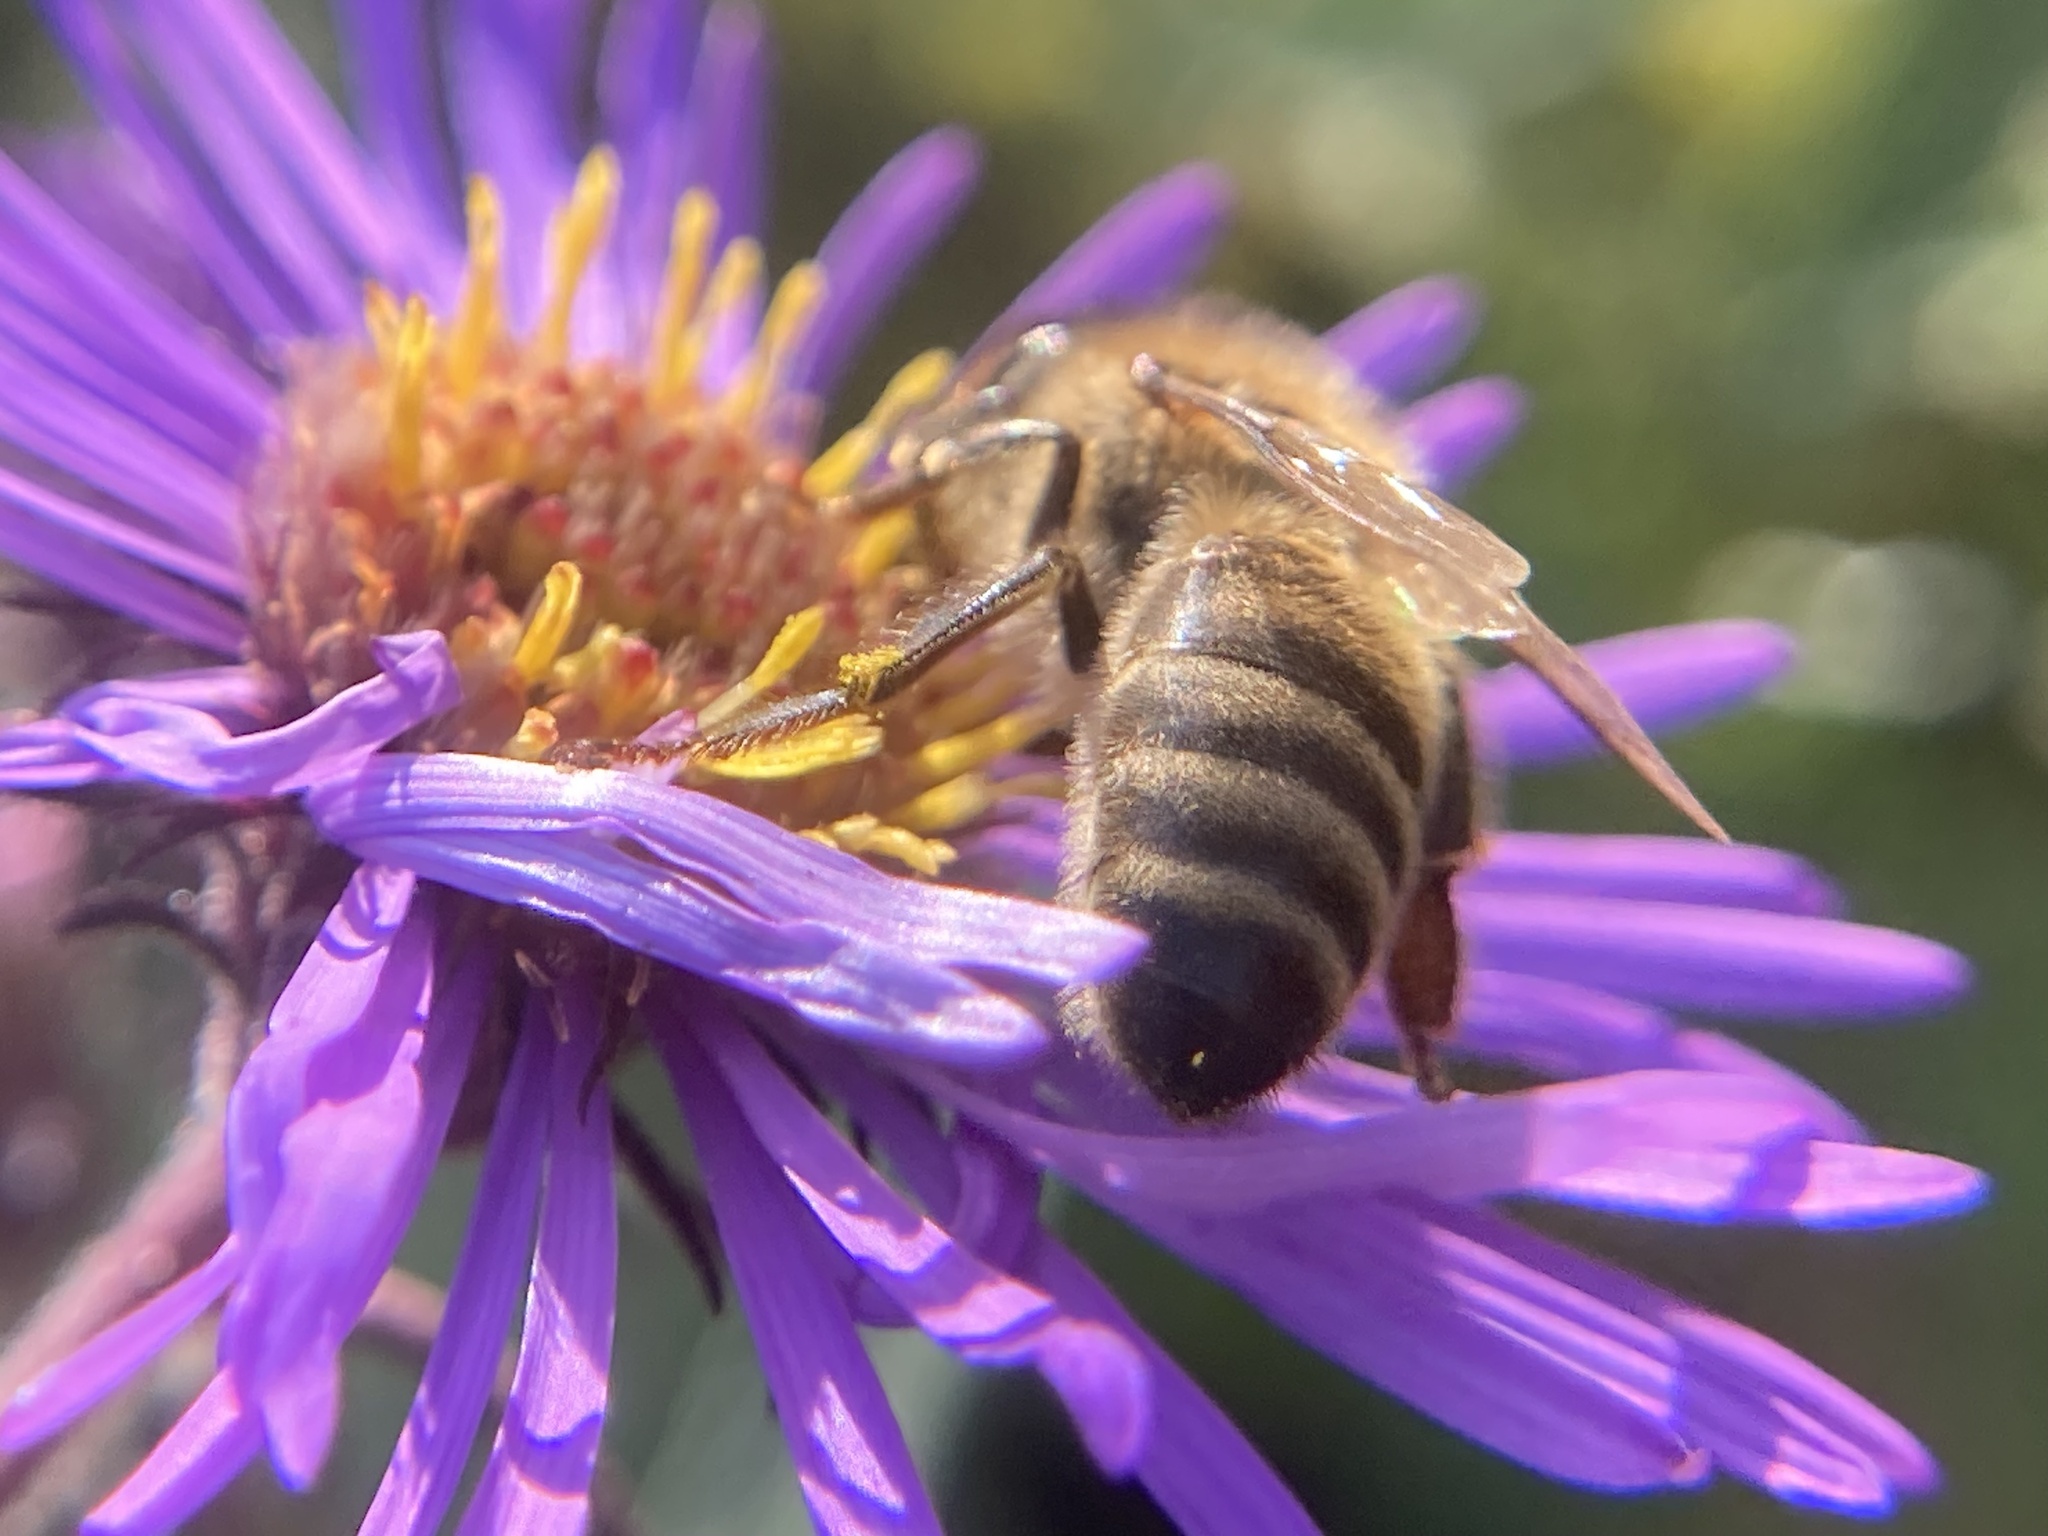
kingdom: Animalia
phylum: Arthropoda
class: Insecta
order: Hymenoptera
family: Apidae
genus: Apis
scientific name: Apis mellifera
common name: Honey bee
